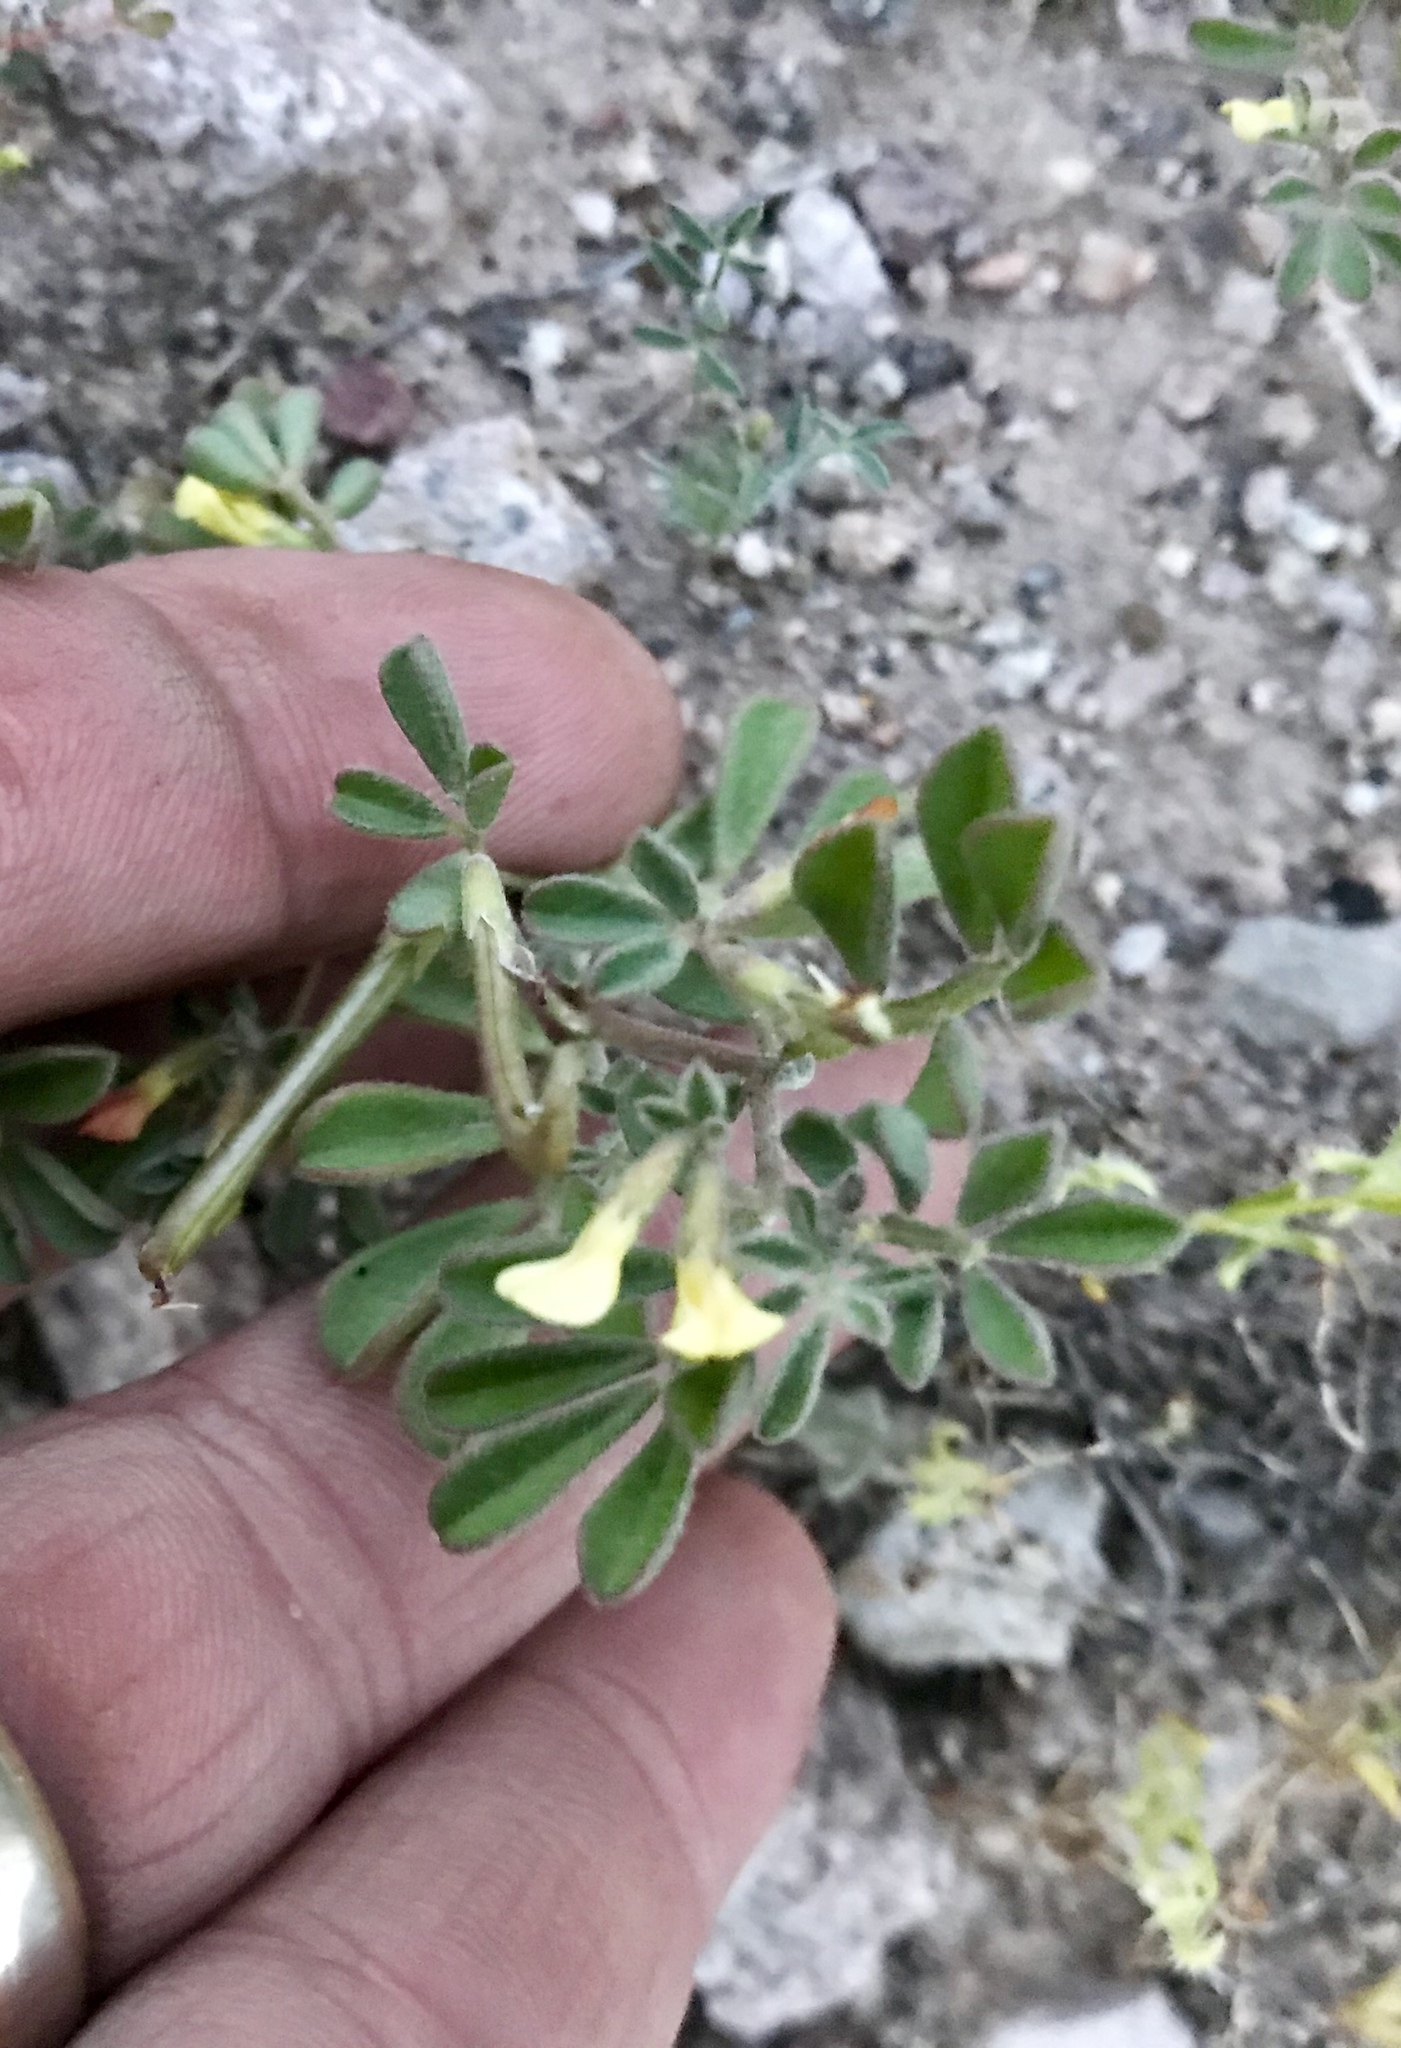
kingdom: Plantae
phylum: Tracheophyta
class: Magnoliopsida
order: Fabales
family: Fabaceae
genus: Acmispon
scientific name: Acmispon strigosus
